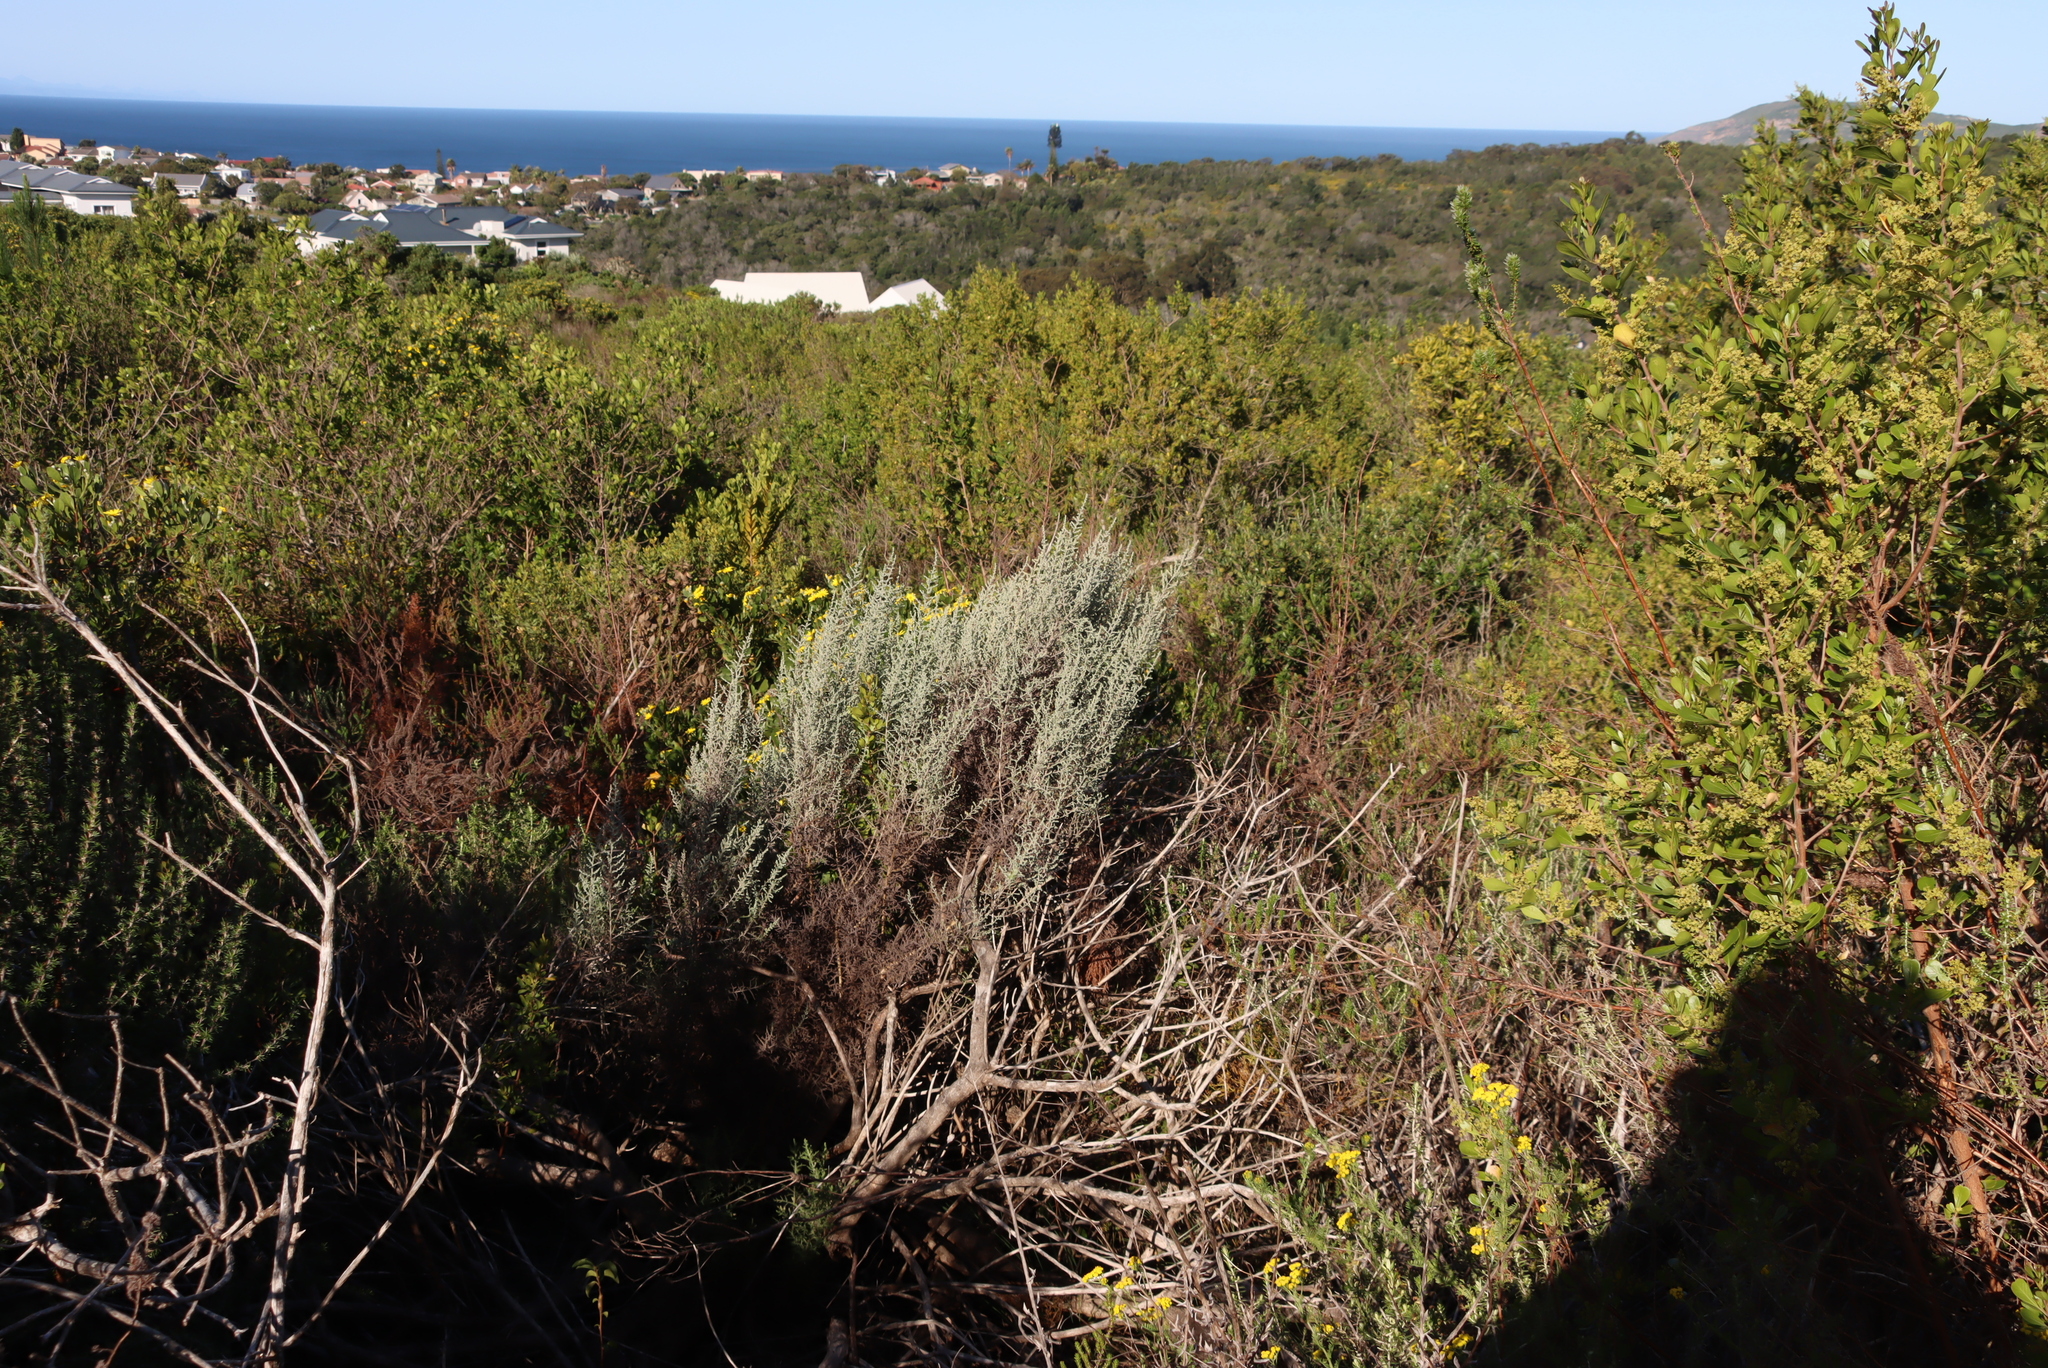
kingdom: Plantae
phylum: Tracheophyta
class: Magnoliopsida
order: Asterales
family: Asteraceae
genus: Seriphium
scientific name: Seriphium plumosum
